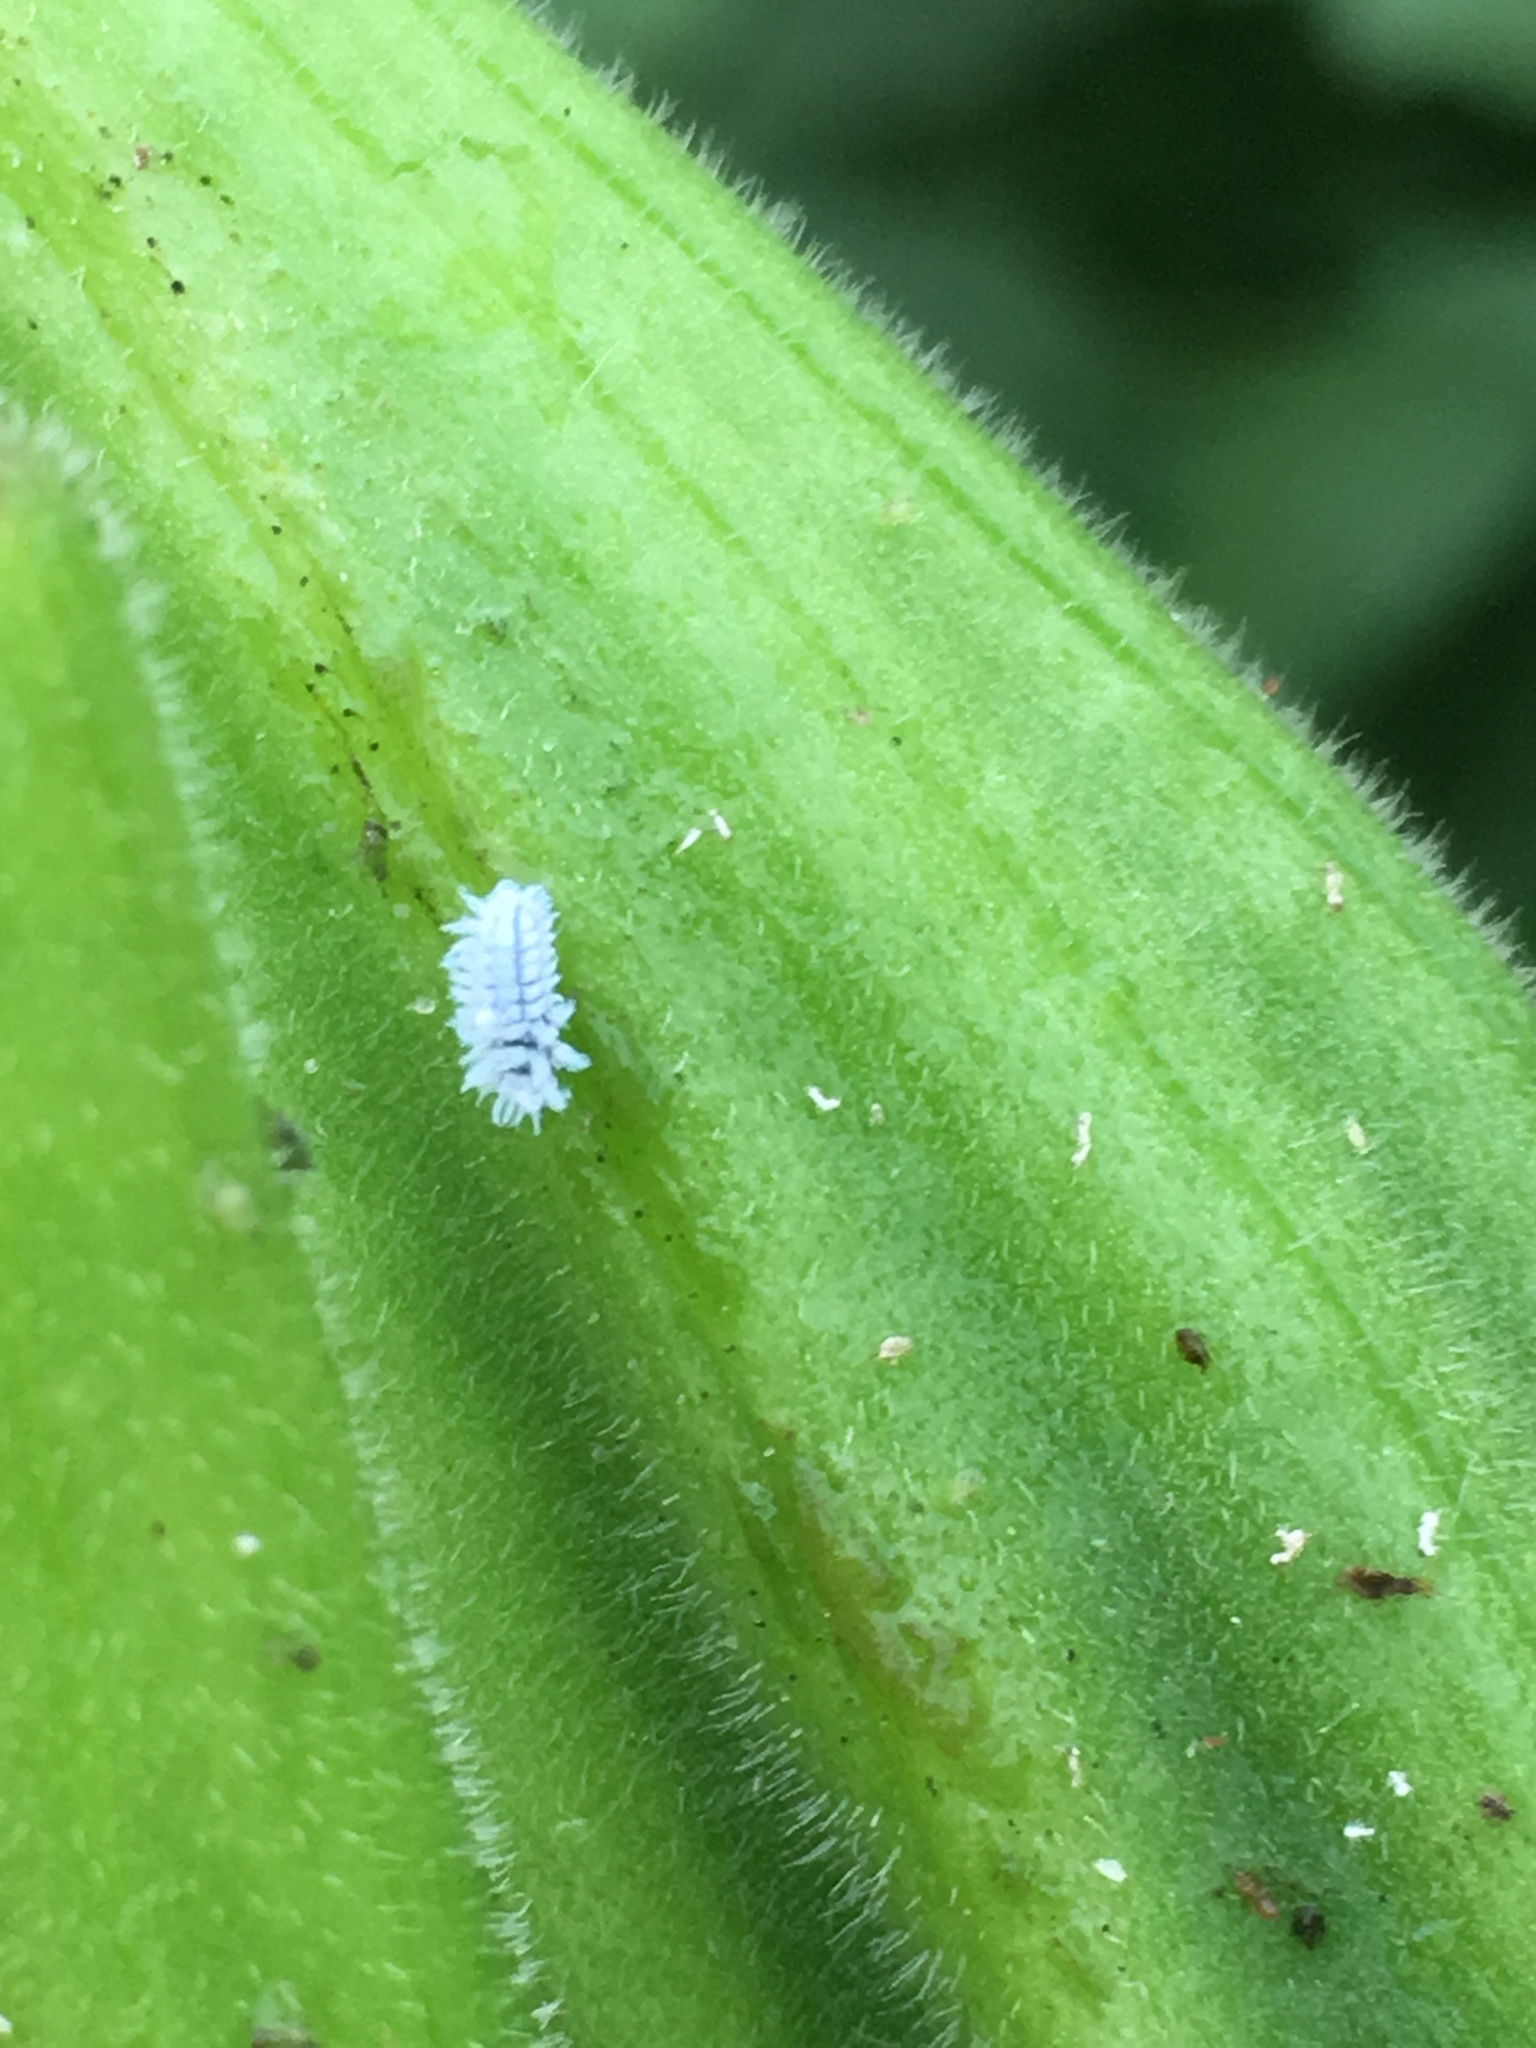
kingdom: Animalia
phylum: Arthropoda
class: Insecta
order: Coleoptera
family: Coccinellidae
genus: Cryptolaemus
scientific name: Cryptolaemus montrouzieri
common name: Mealybug destroyer
